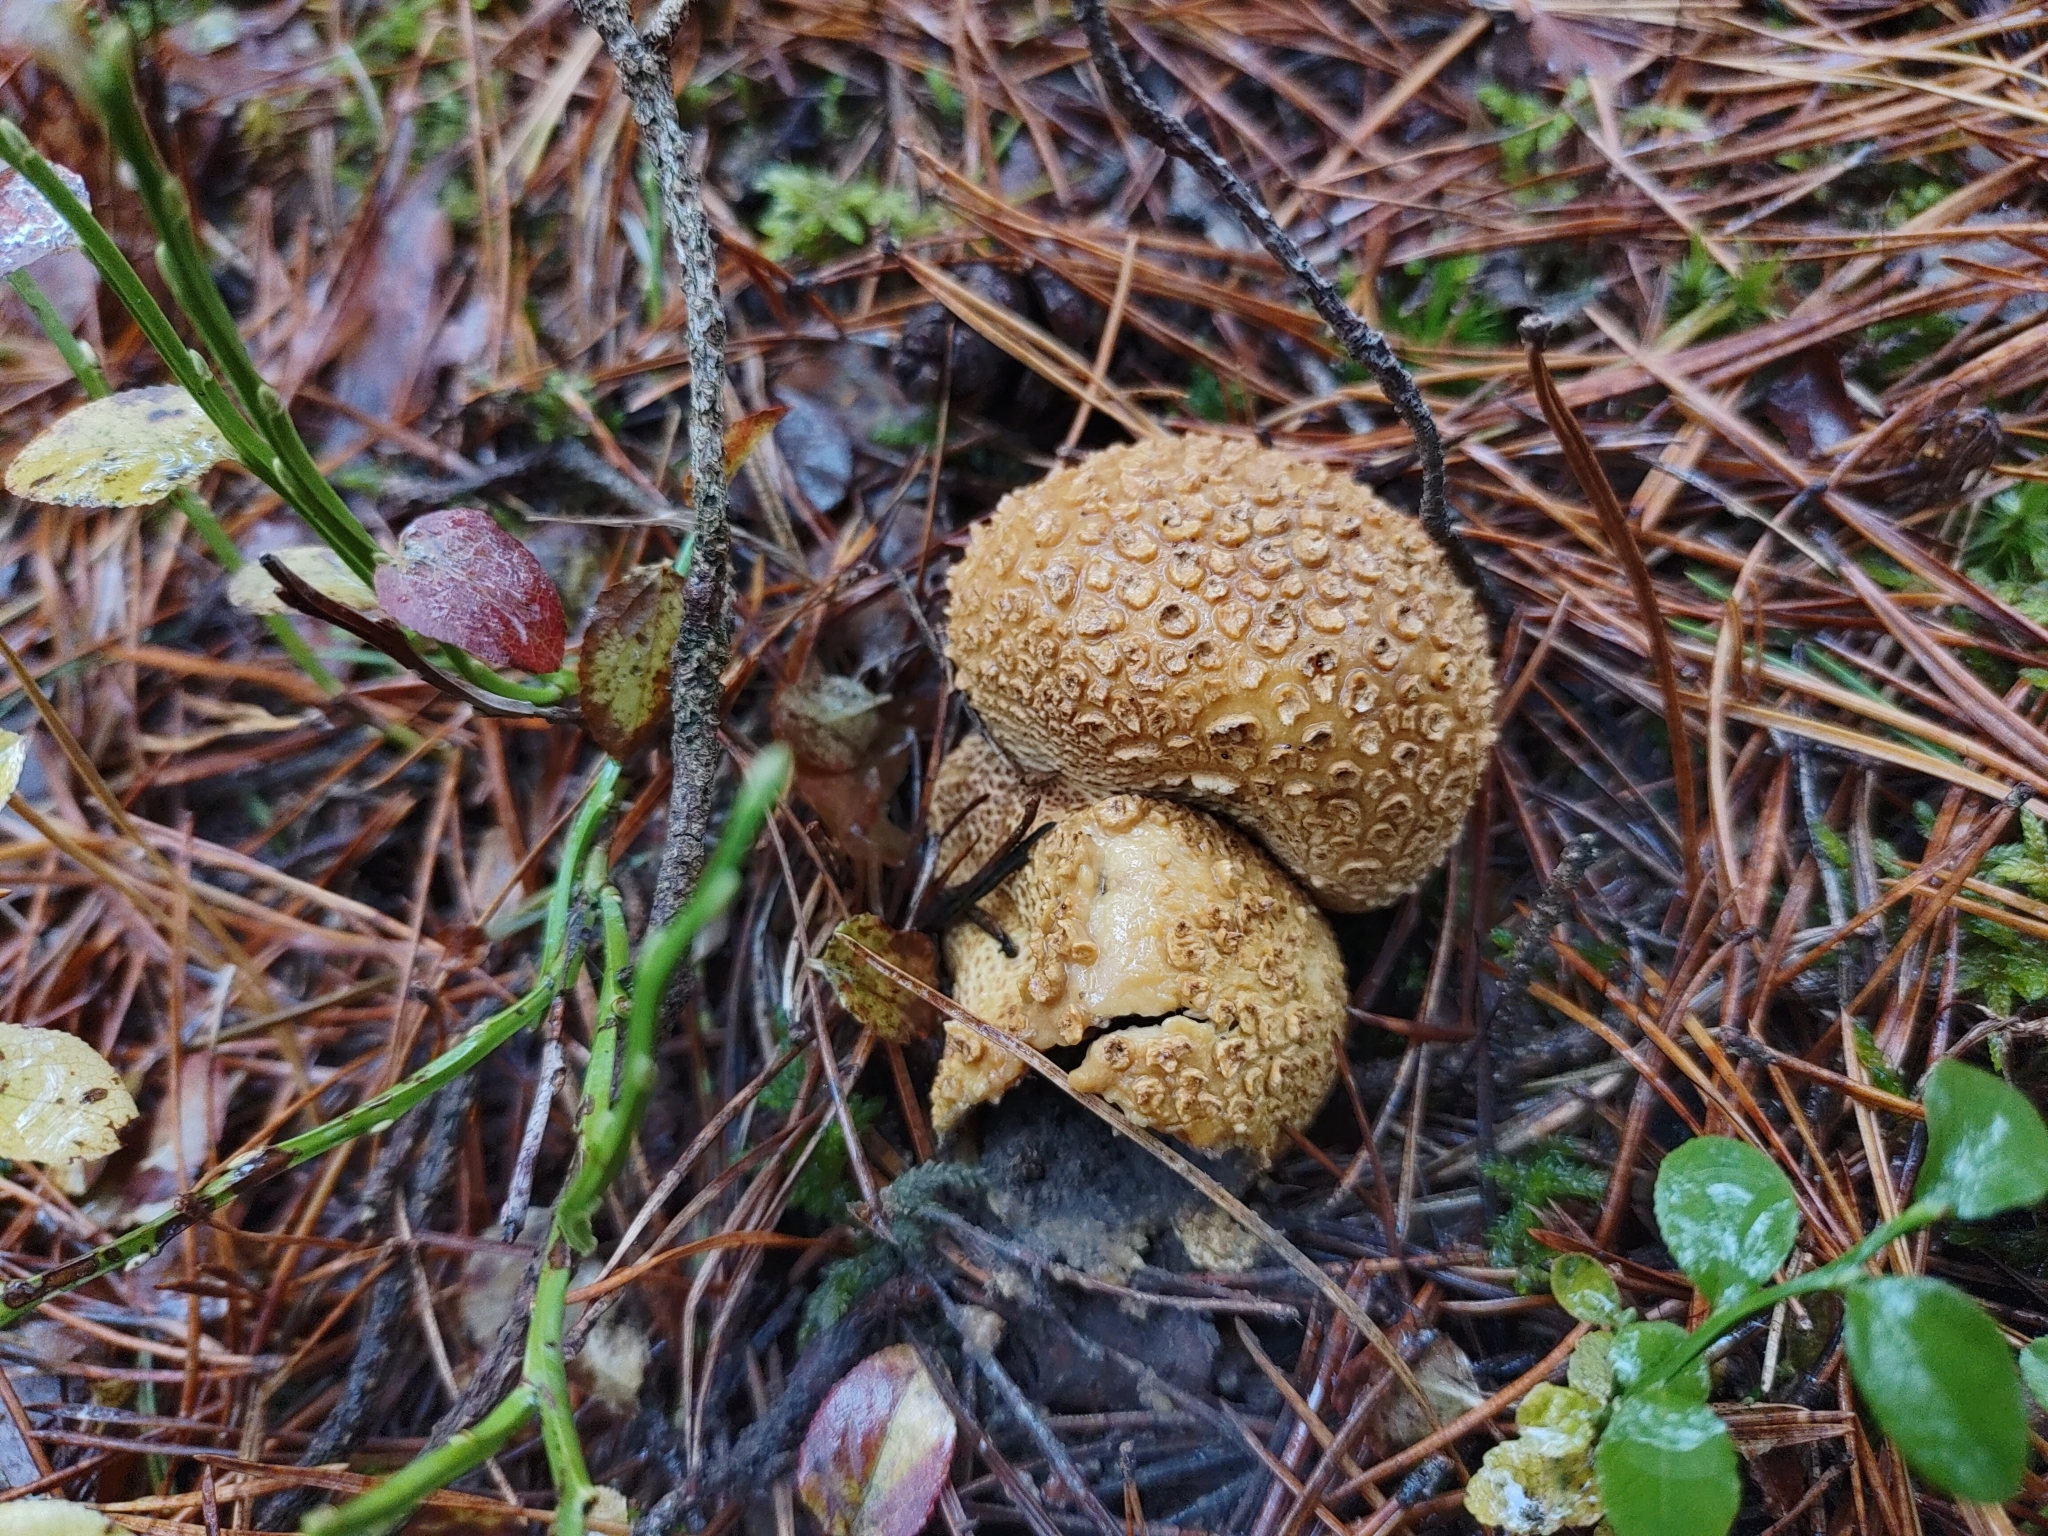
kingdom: Fungi
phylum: Basidiomycota
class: Agaricomycetes
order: Boletales
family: Sclerodermataceae
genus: Scleroderma
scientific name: Scleroderma citrinum
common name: Common earthball
